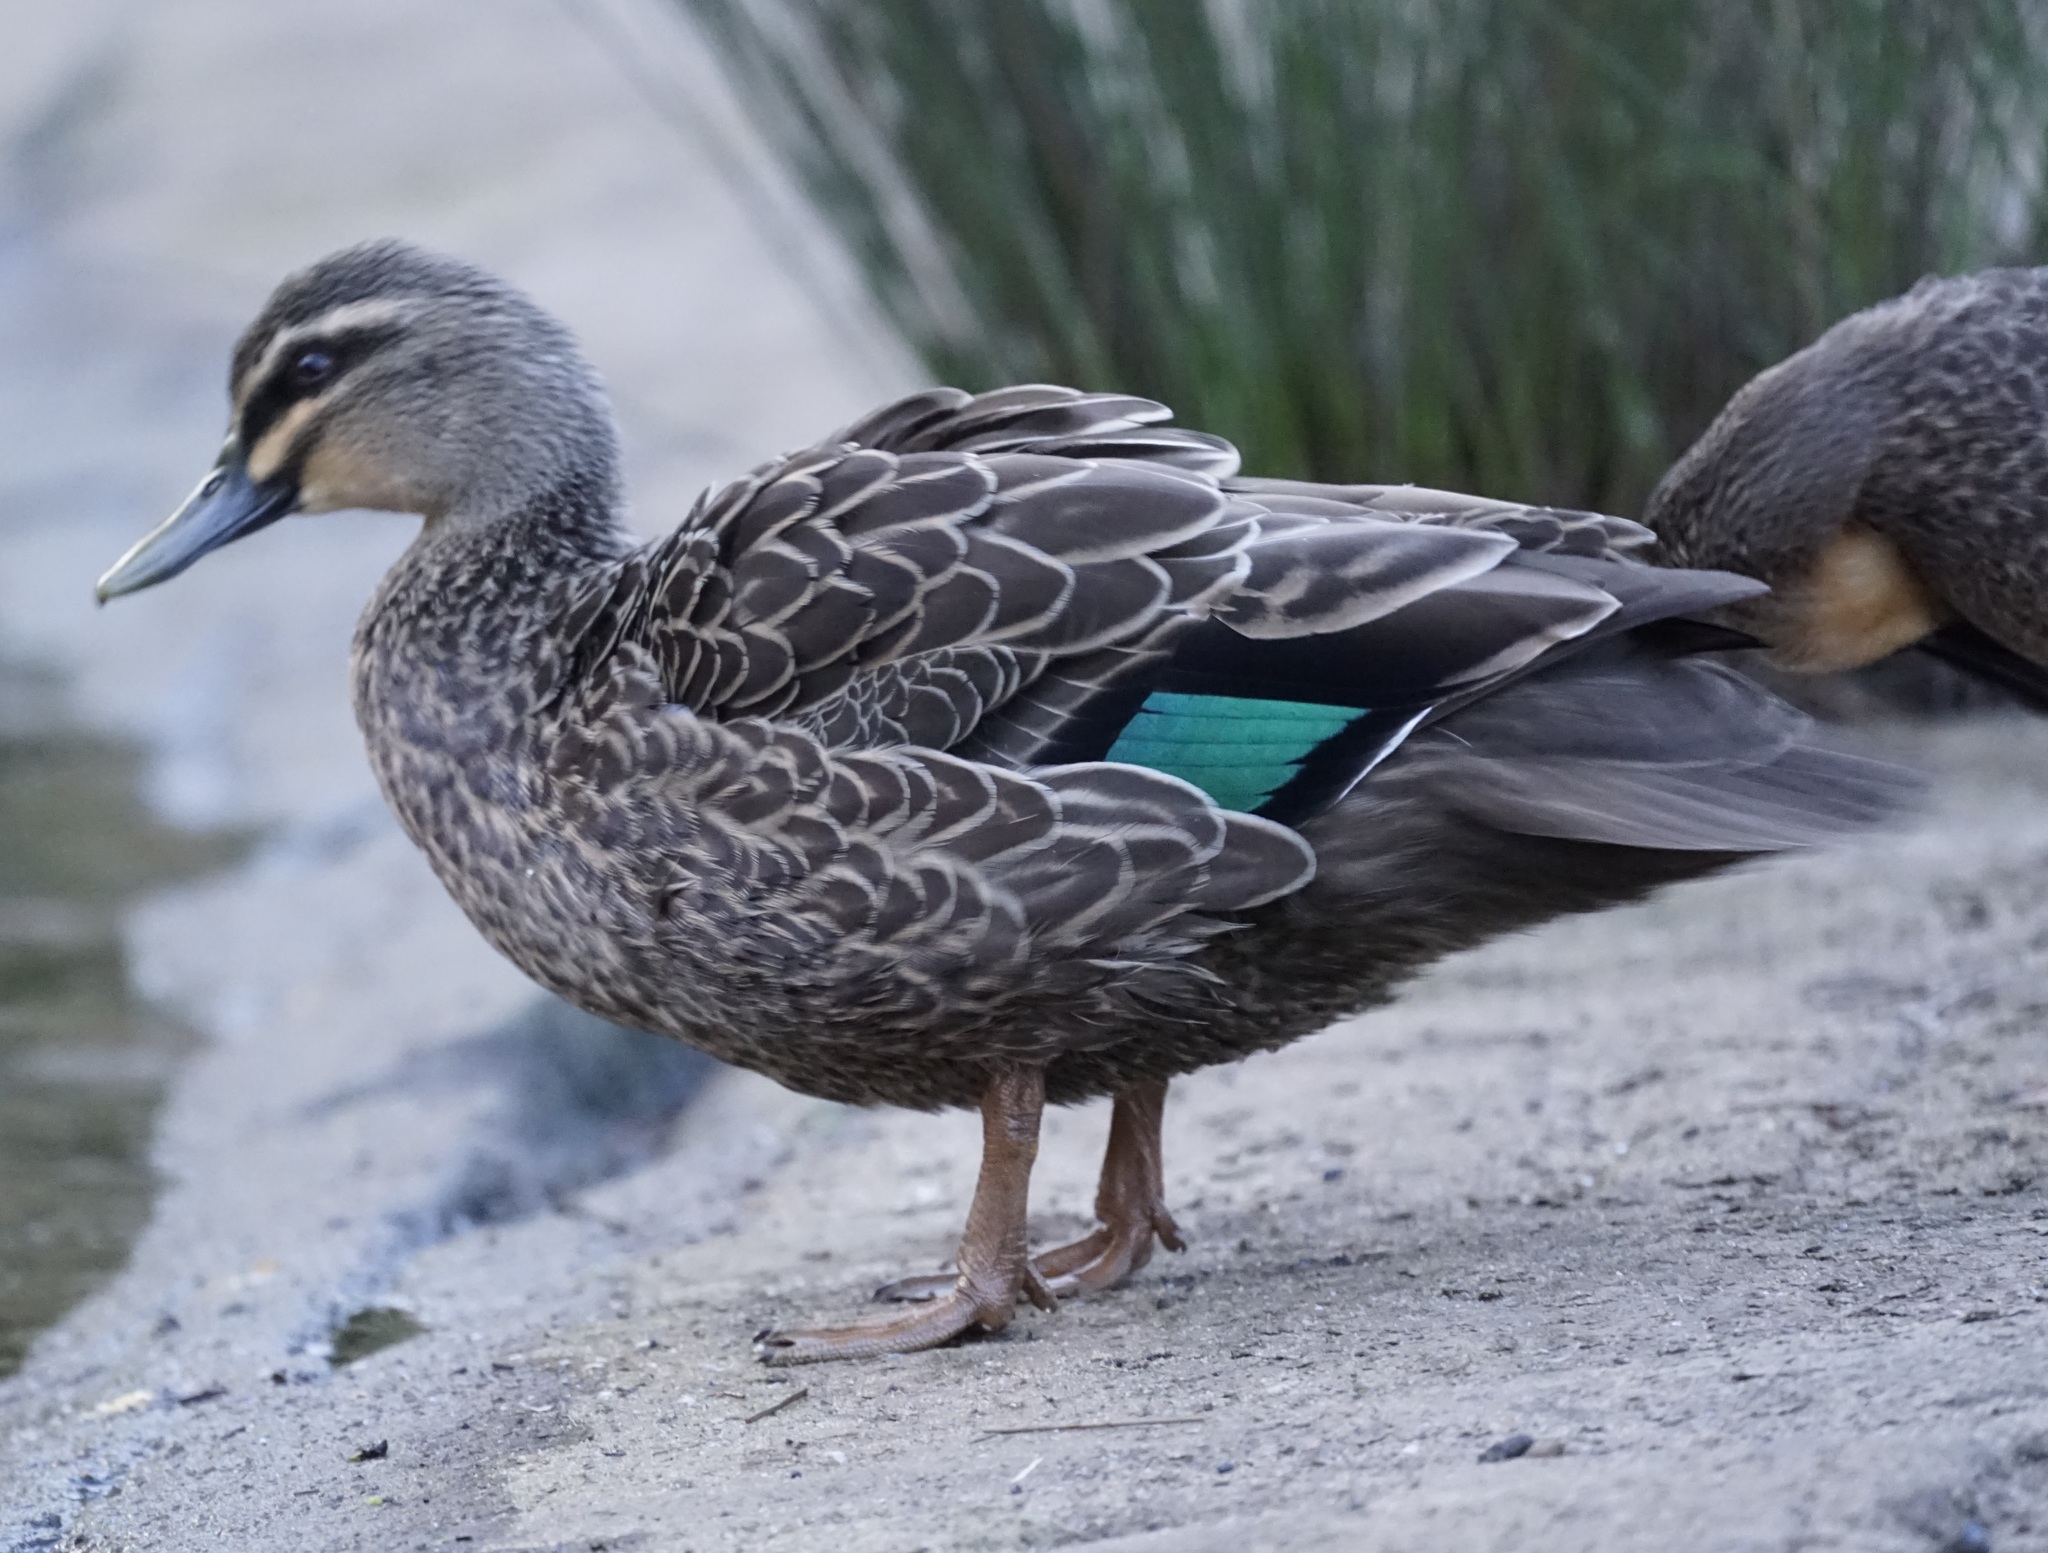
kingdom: Animalia
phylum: Chordata
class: Aves
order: Anseriformes
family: Anatidae
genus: Anas
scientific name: Anas
